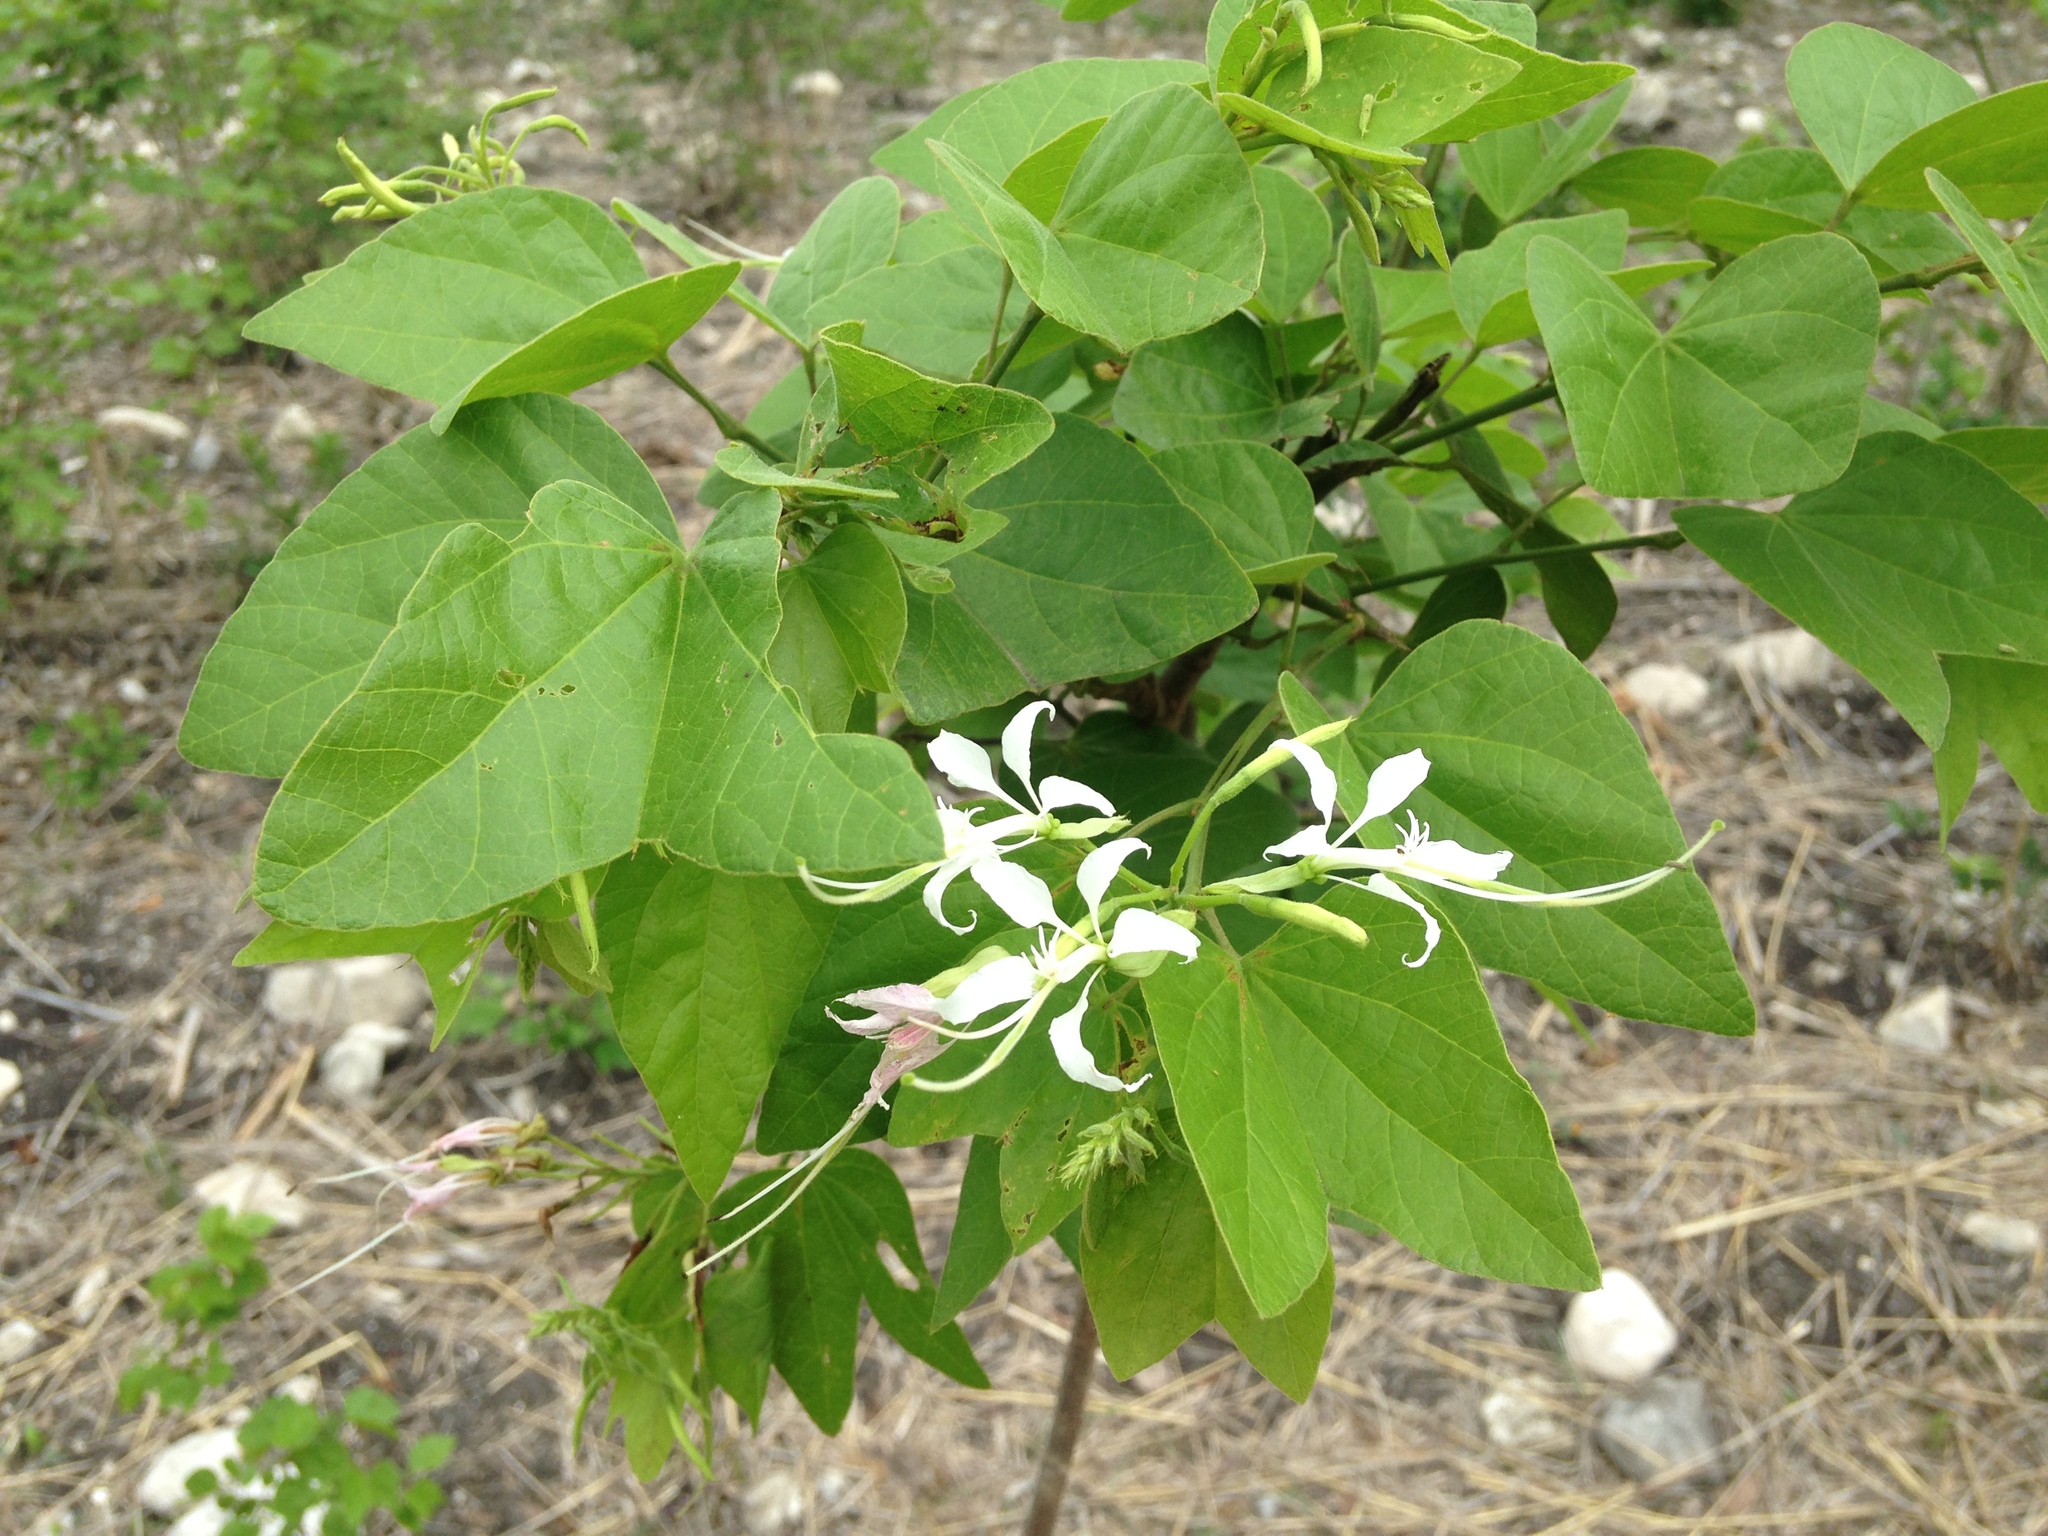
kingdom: Plantae
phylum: Tracheophyta
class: Magnoliopsida
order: Fabales
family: Fabaceae
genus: Bauhinia
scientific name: Bauhinia divaricata
